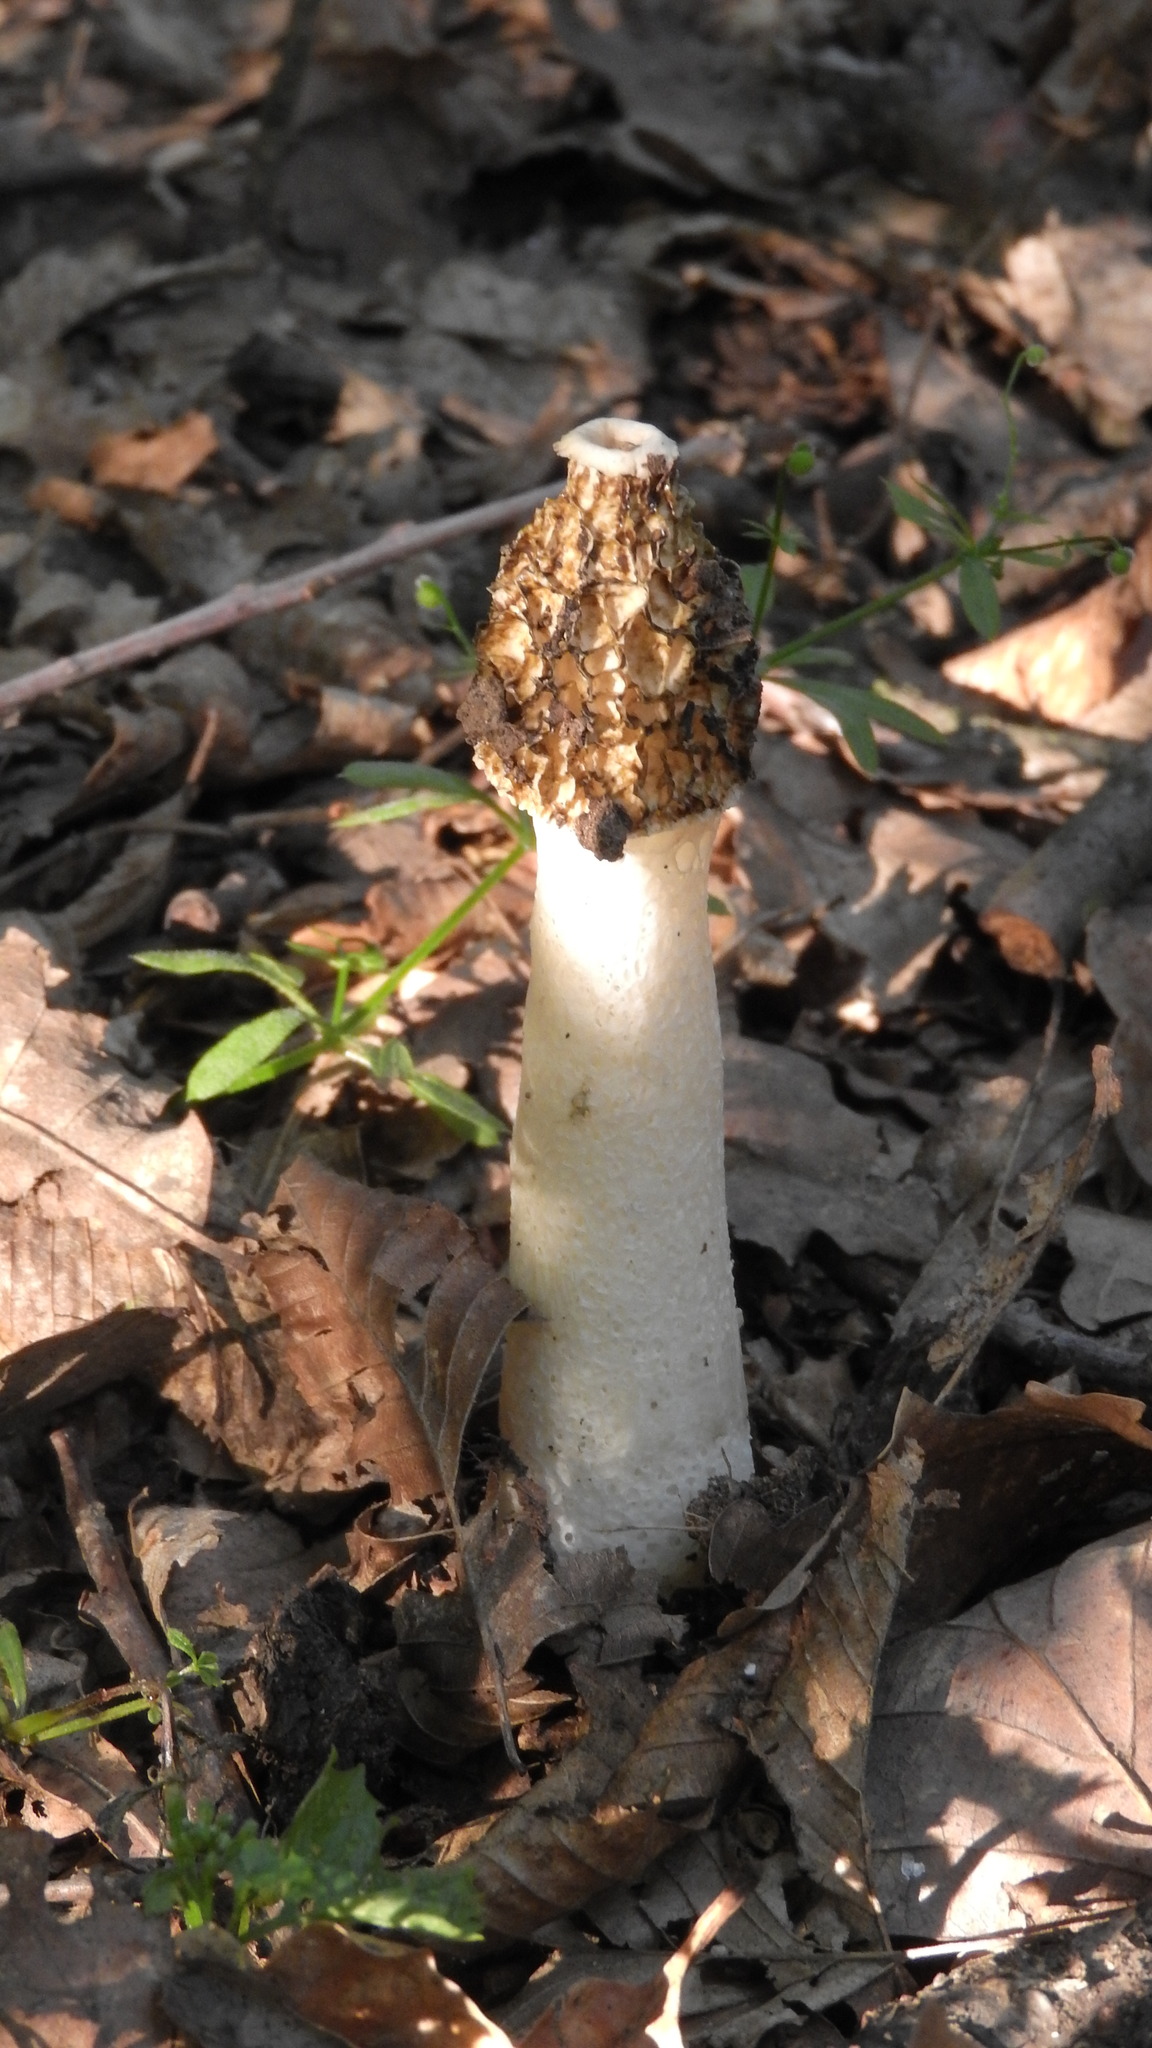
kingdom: Fungi
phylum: Basidiomycota
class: Agaricomycetes
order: Phallales
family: Phallaceae
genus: Phallus
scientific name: Phallus impudicus
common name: Common stinkhorn
